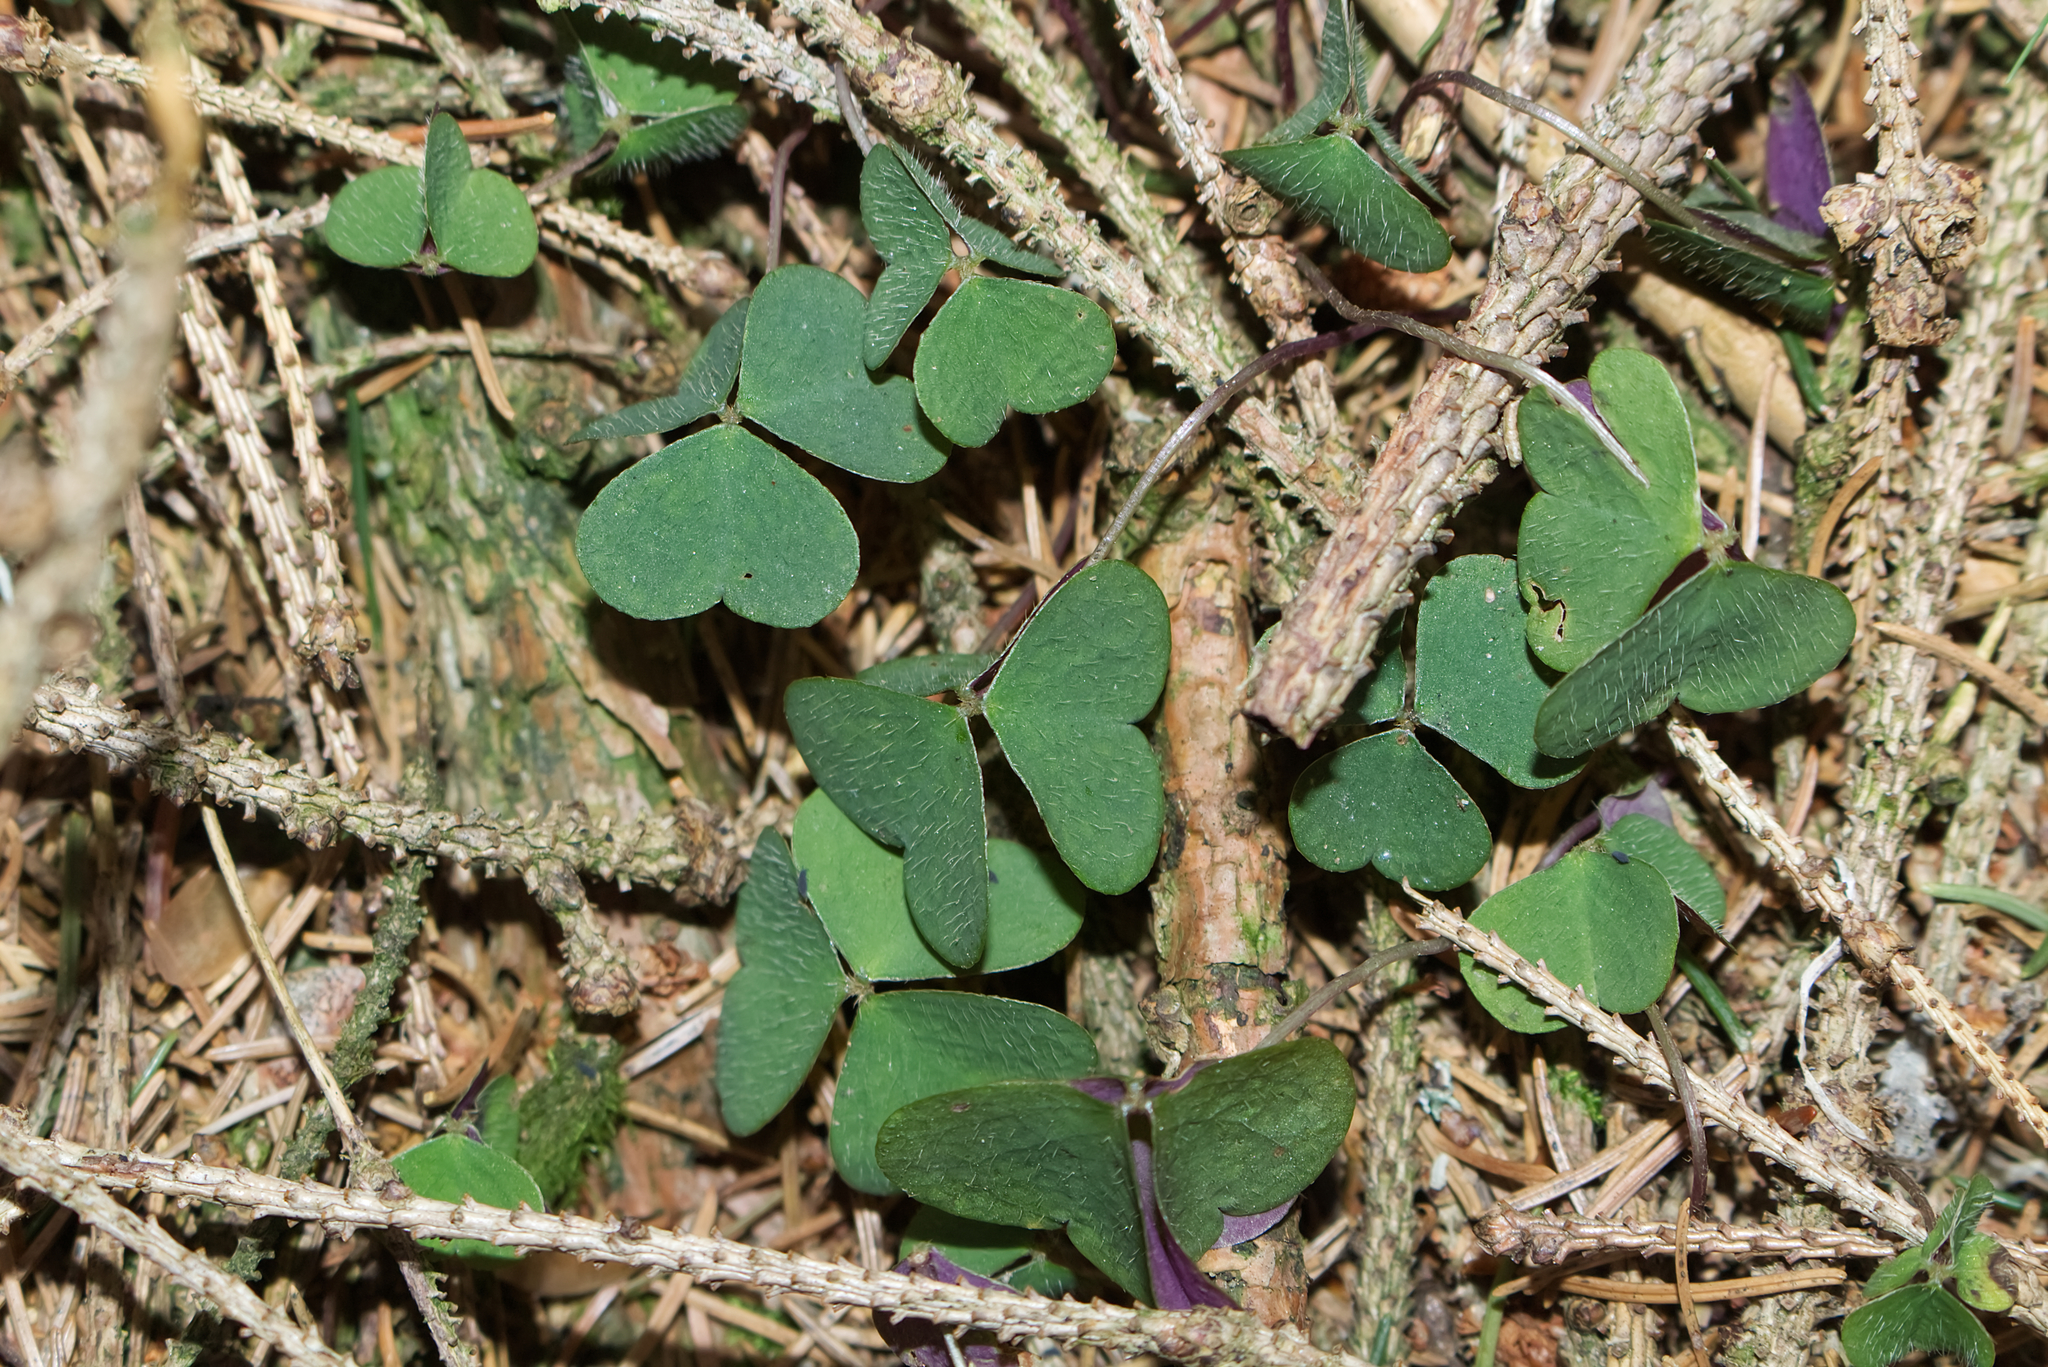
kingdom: Plantae
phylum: Tracheophyta
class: Magnoliopsida
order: Oxalidales
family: Oxalidaceae
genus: Oxalis
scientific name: Oxalis acetosella
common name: Wood-sorrel
